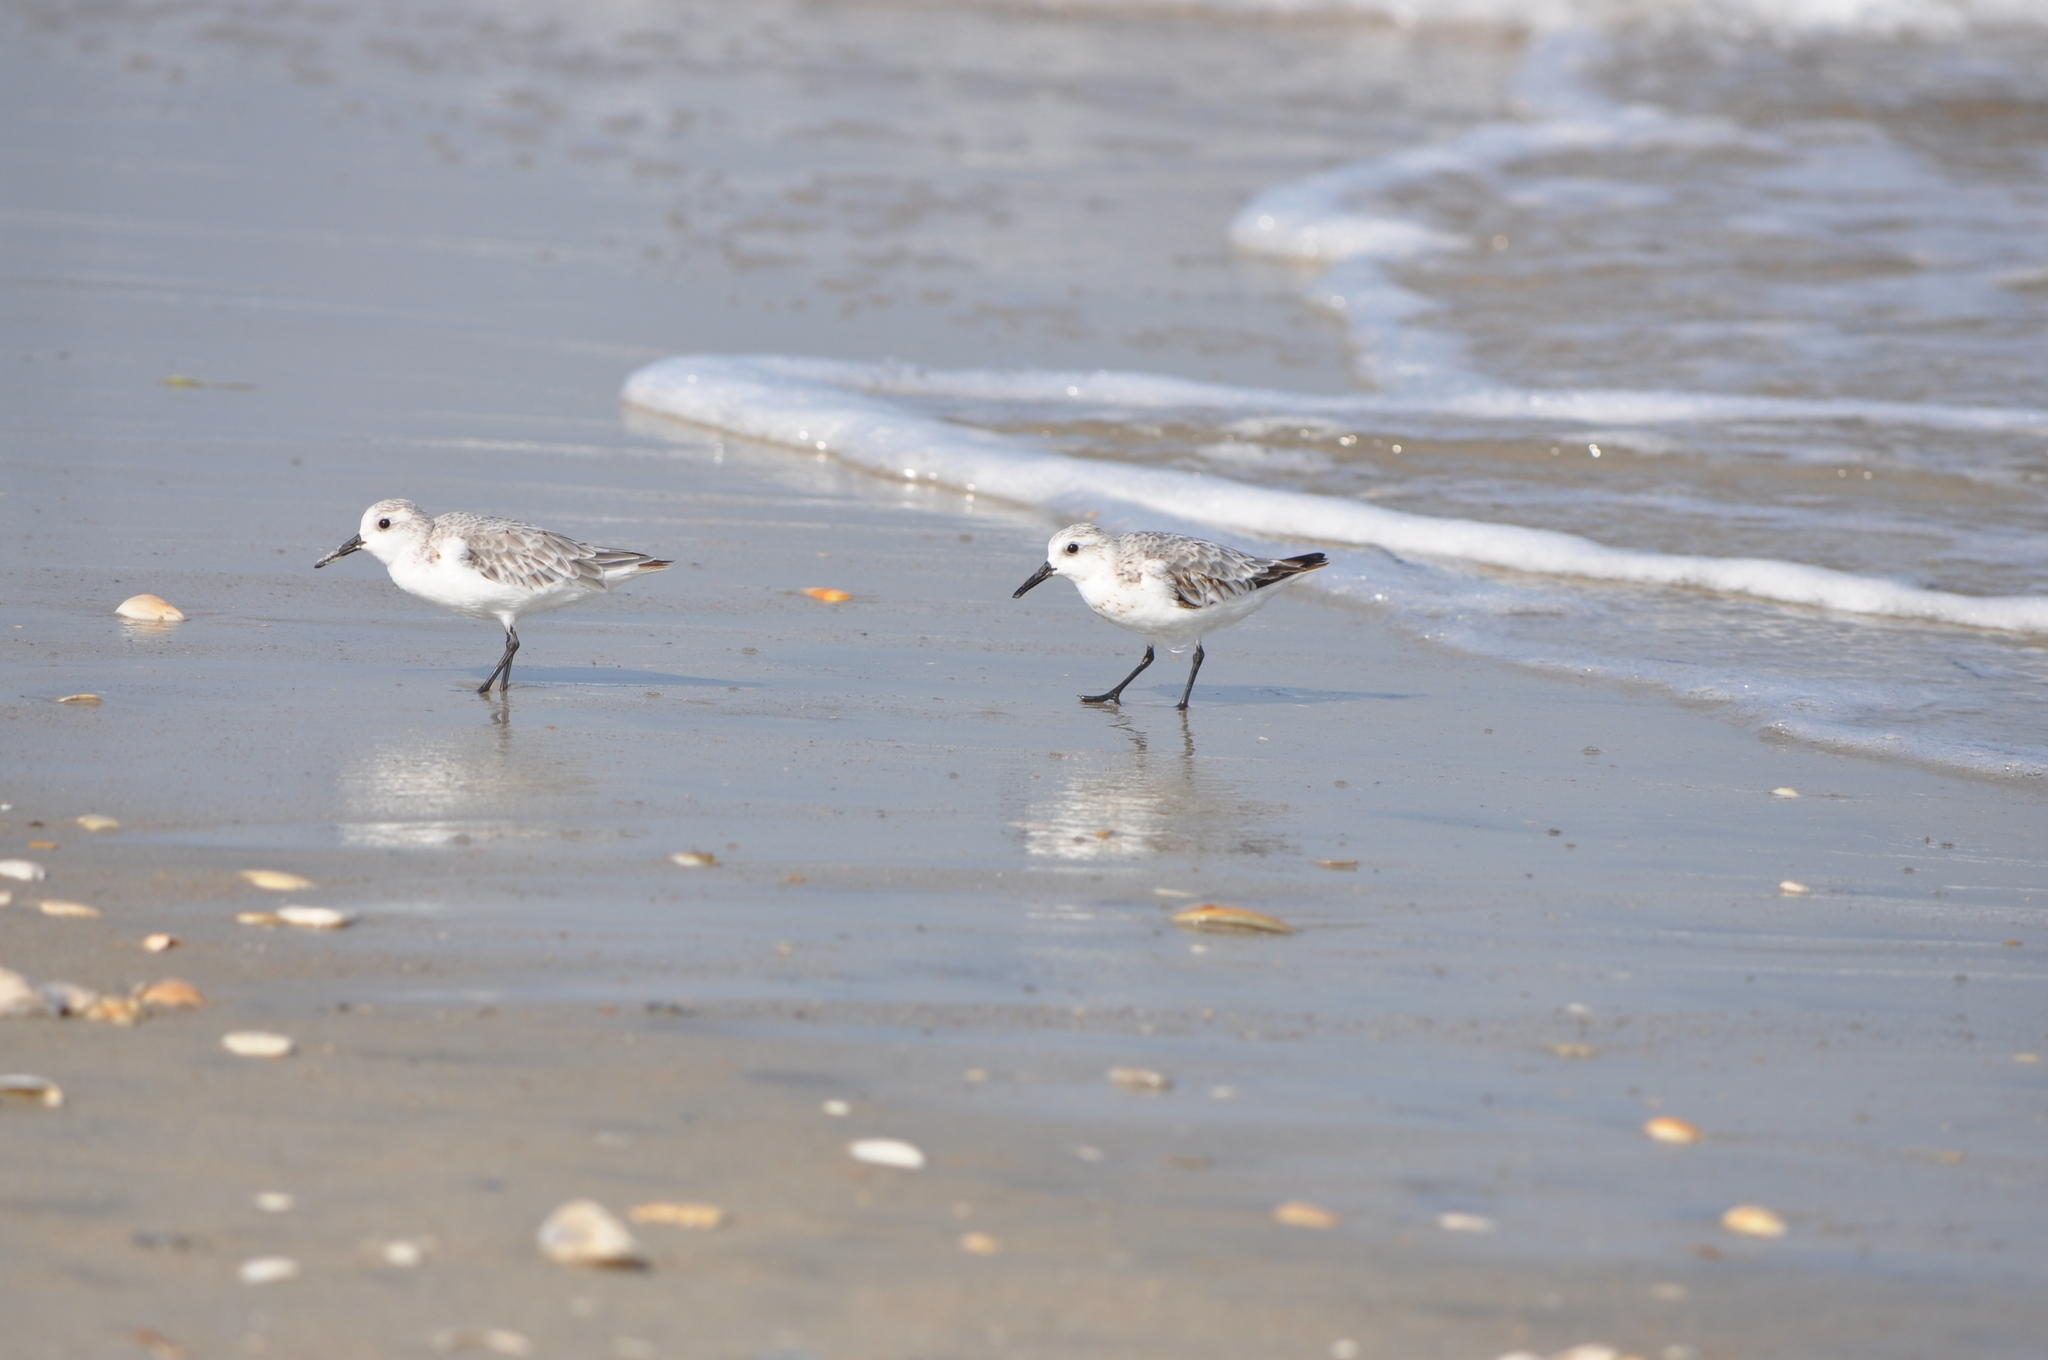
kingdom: Animalia
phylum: Chordata
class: Aves
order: Charadriiformes
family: Scolopacidae
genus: Calidris
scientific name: Calidris alba
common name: Sanderling
